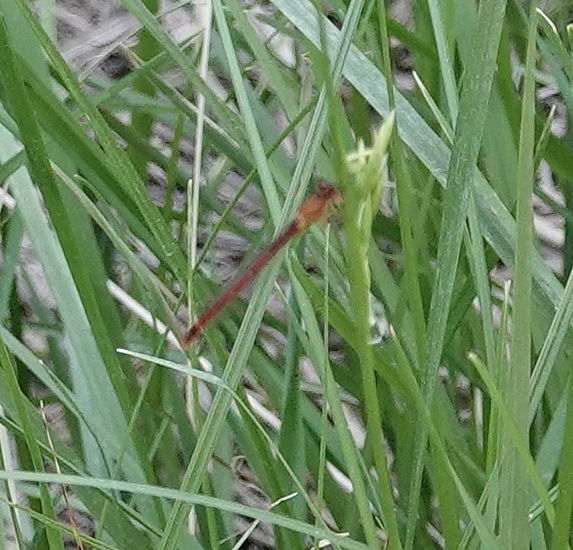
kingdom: Animalia
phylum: Arthropoda
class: Insecta
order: Odonata
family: Coenagrionidae
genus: Amphiagrion
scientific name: Amphiagrion abbreviatum
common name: Western red damsel
